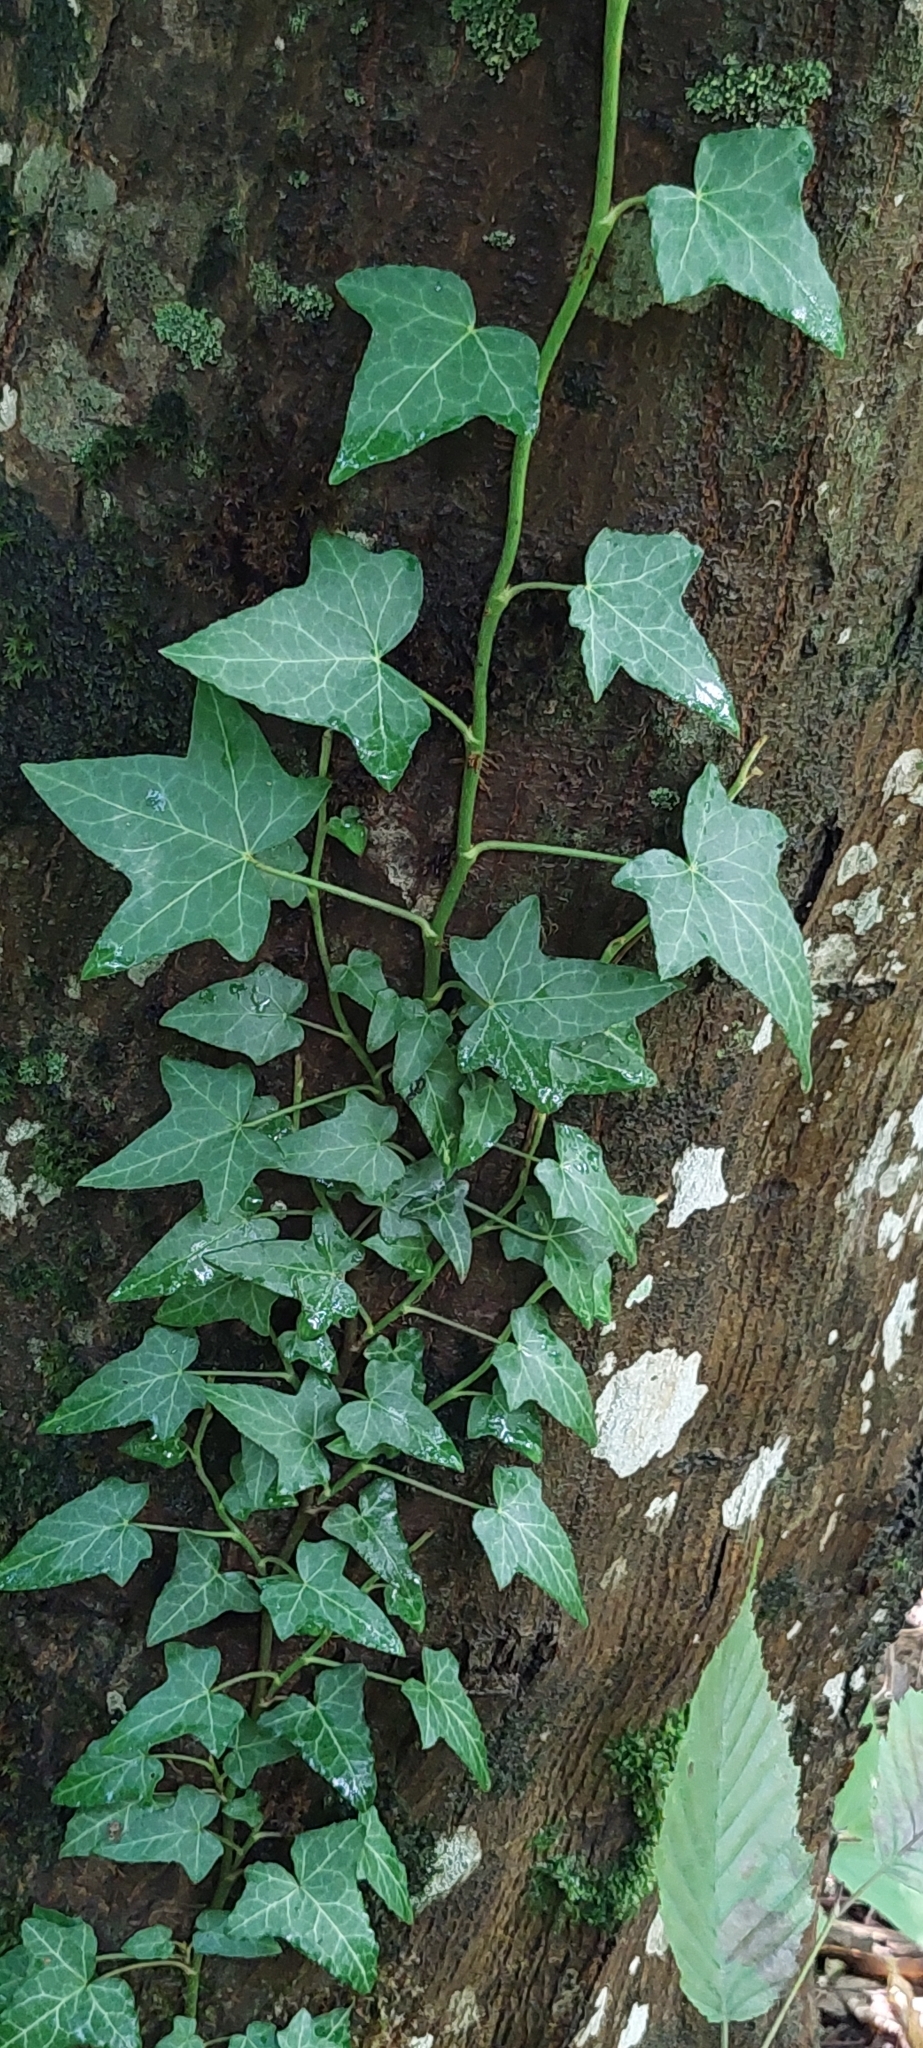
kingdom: Plantae
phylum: Tracheophyta
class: Magnoliopsida
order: Apiales
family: Araliaceae
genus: Hedera
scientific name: Hedera helix
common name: Ivy
